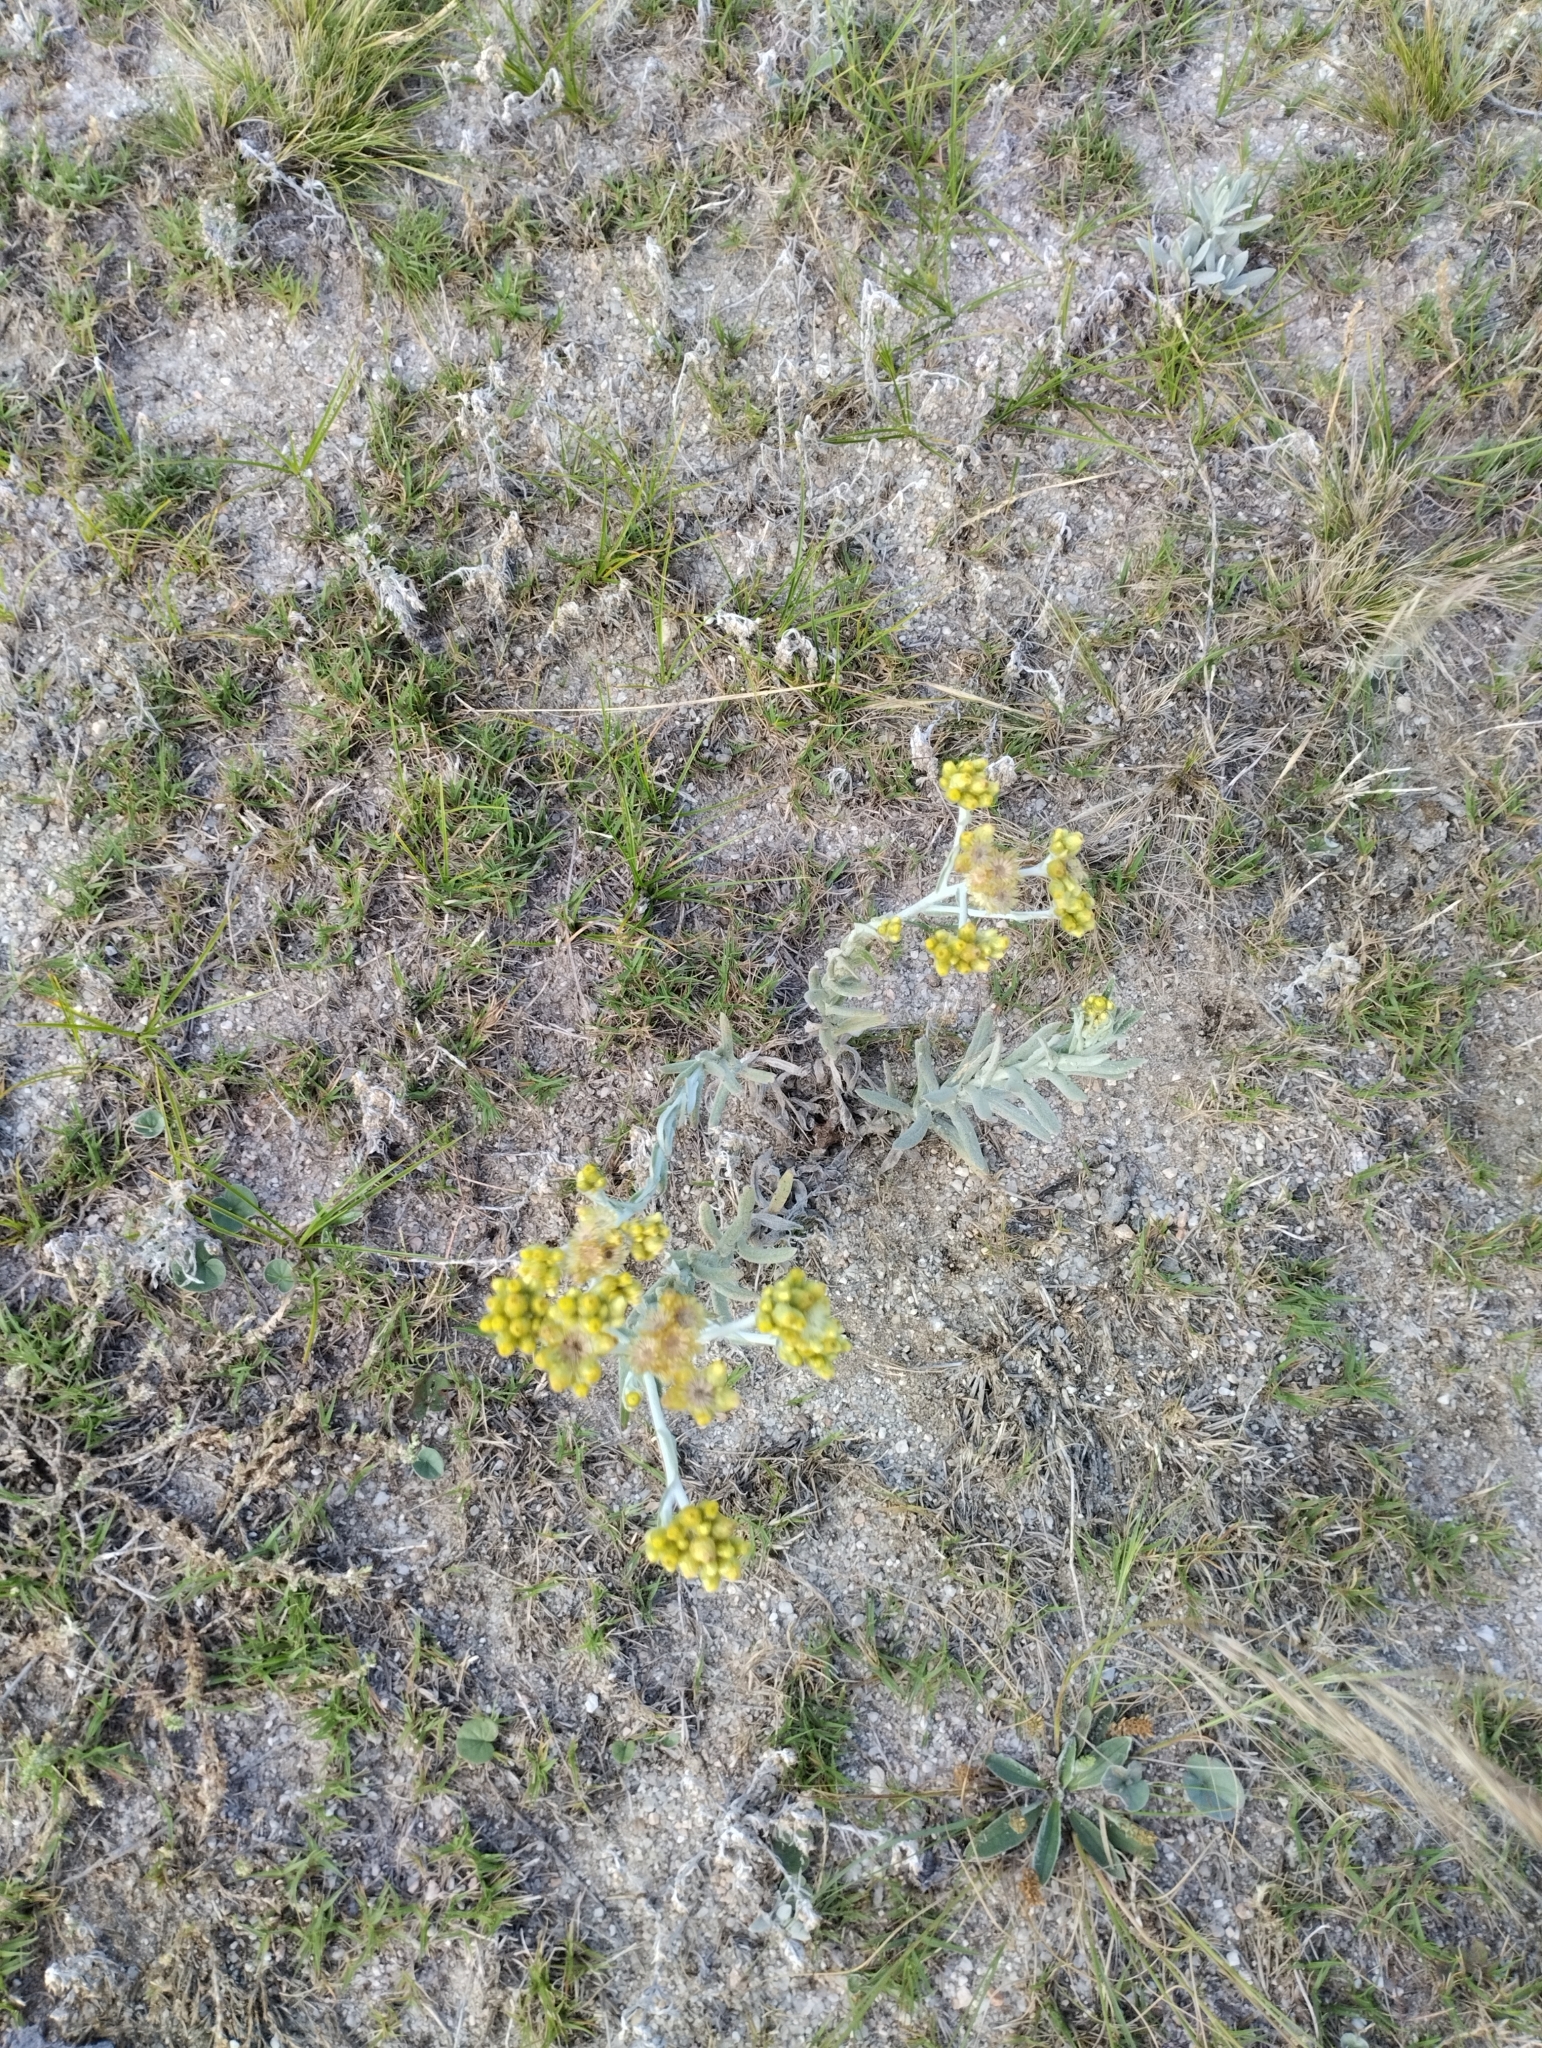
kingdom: Plantae
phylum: Tracheophyta
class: Magnoliopsida
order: Asterales
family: Asteraceae
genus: Pseudognaphalium
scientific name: Pseudognaphalium cheiranthifolium
